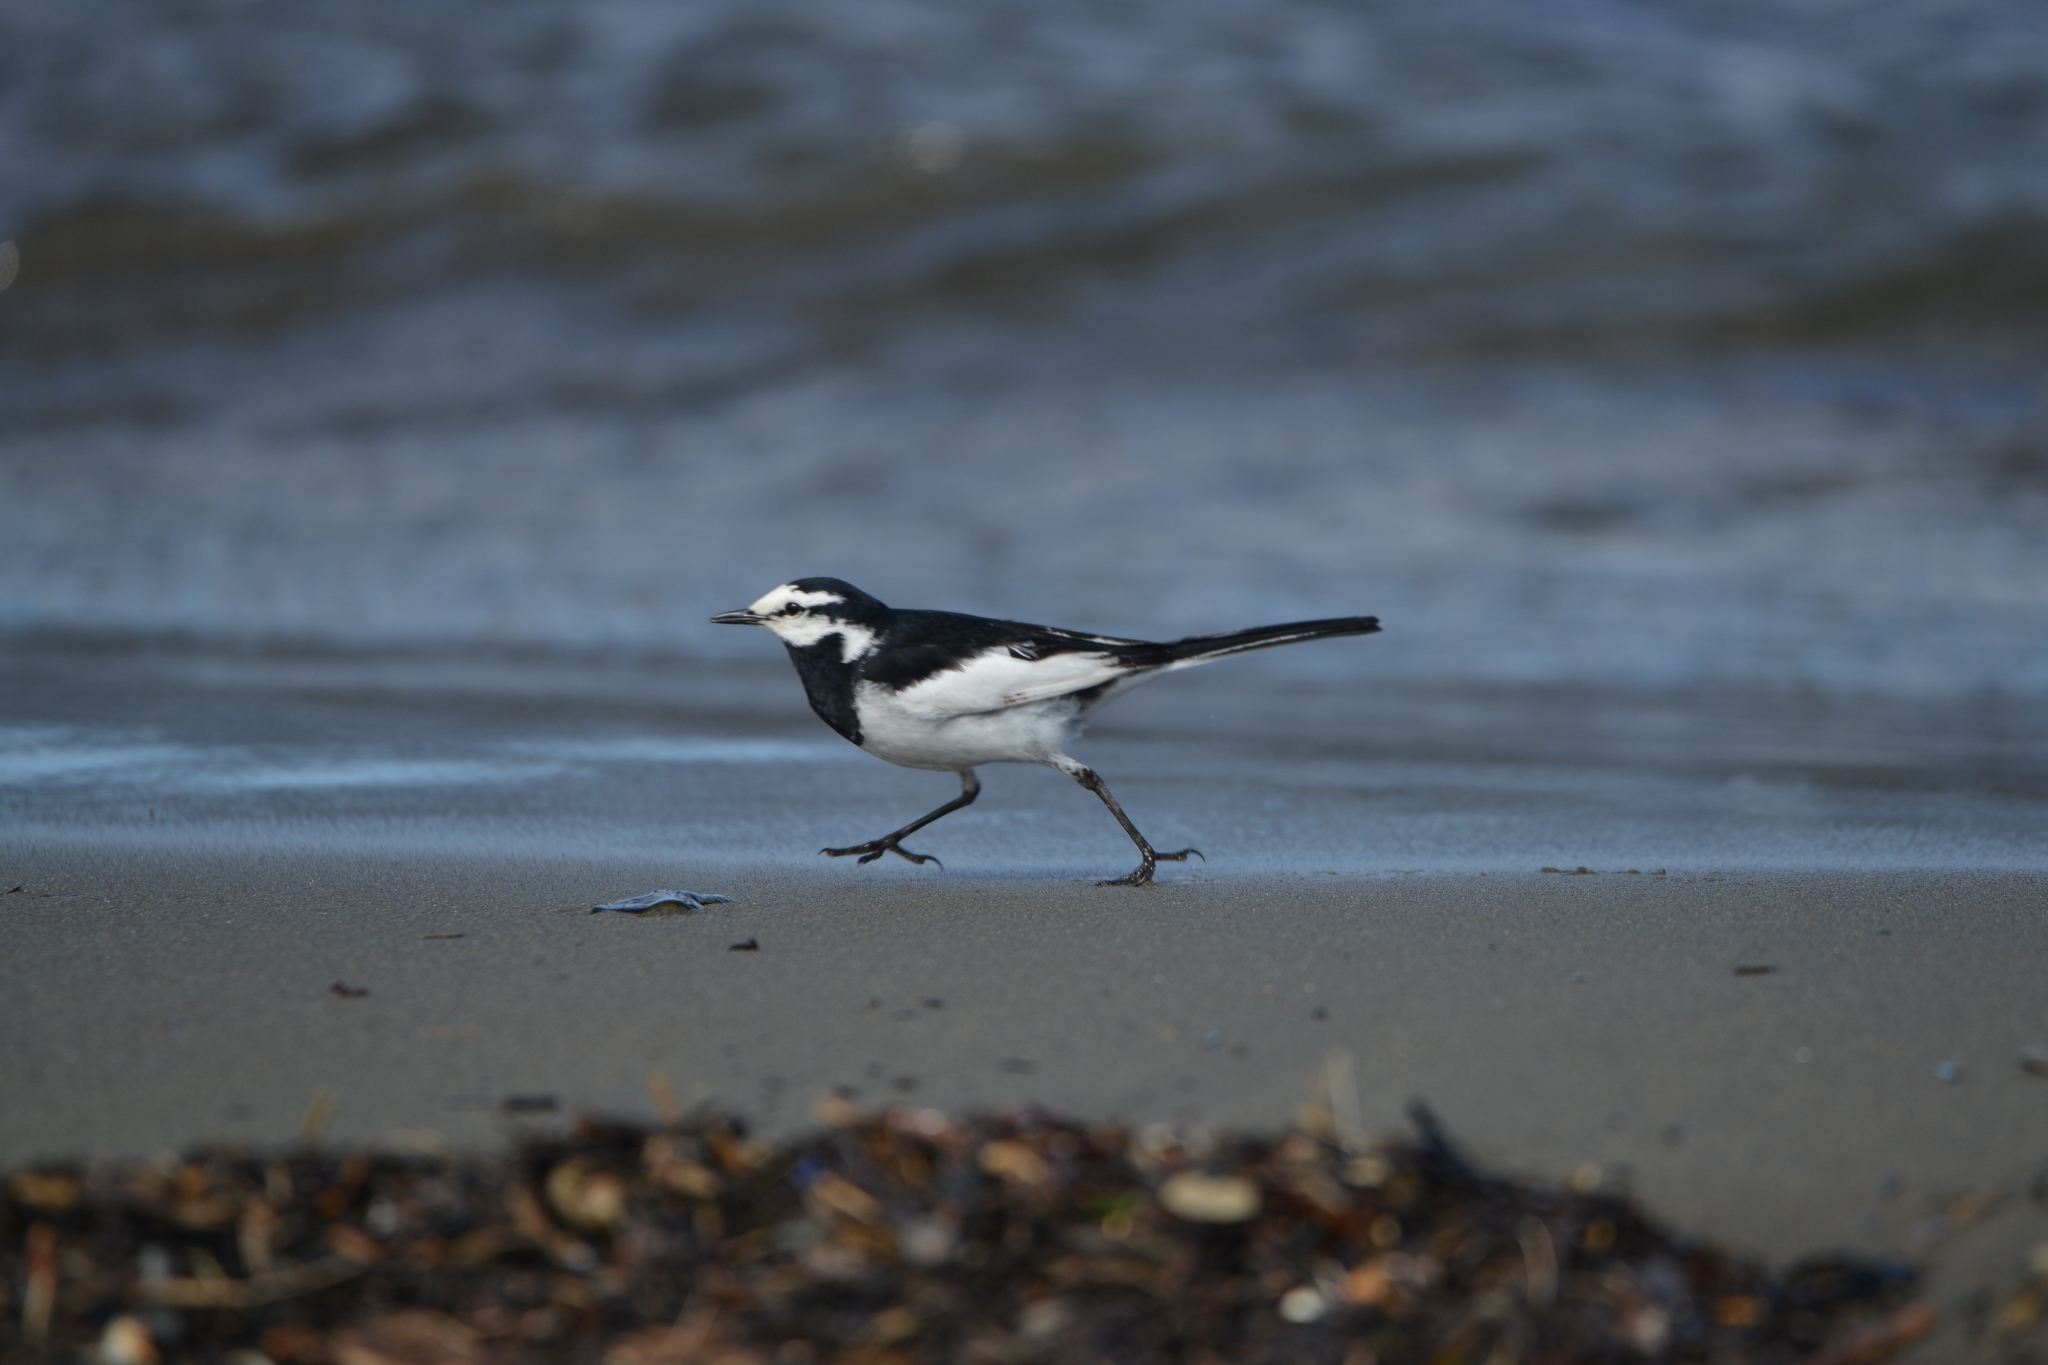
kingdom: Animalia
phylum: Chordata
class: Aves
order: Passeriformes
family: Motacillidae
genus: Motacilla
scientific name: Motacilla alba
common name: White wagtail
